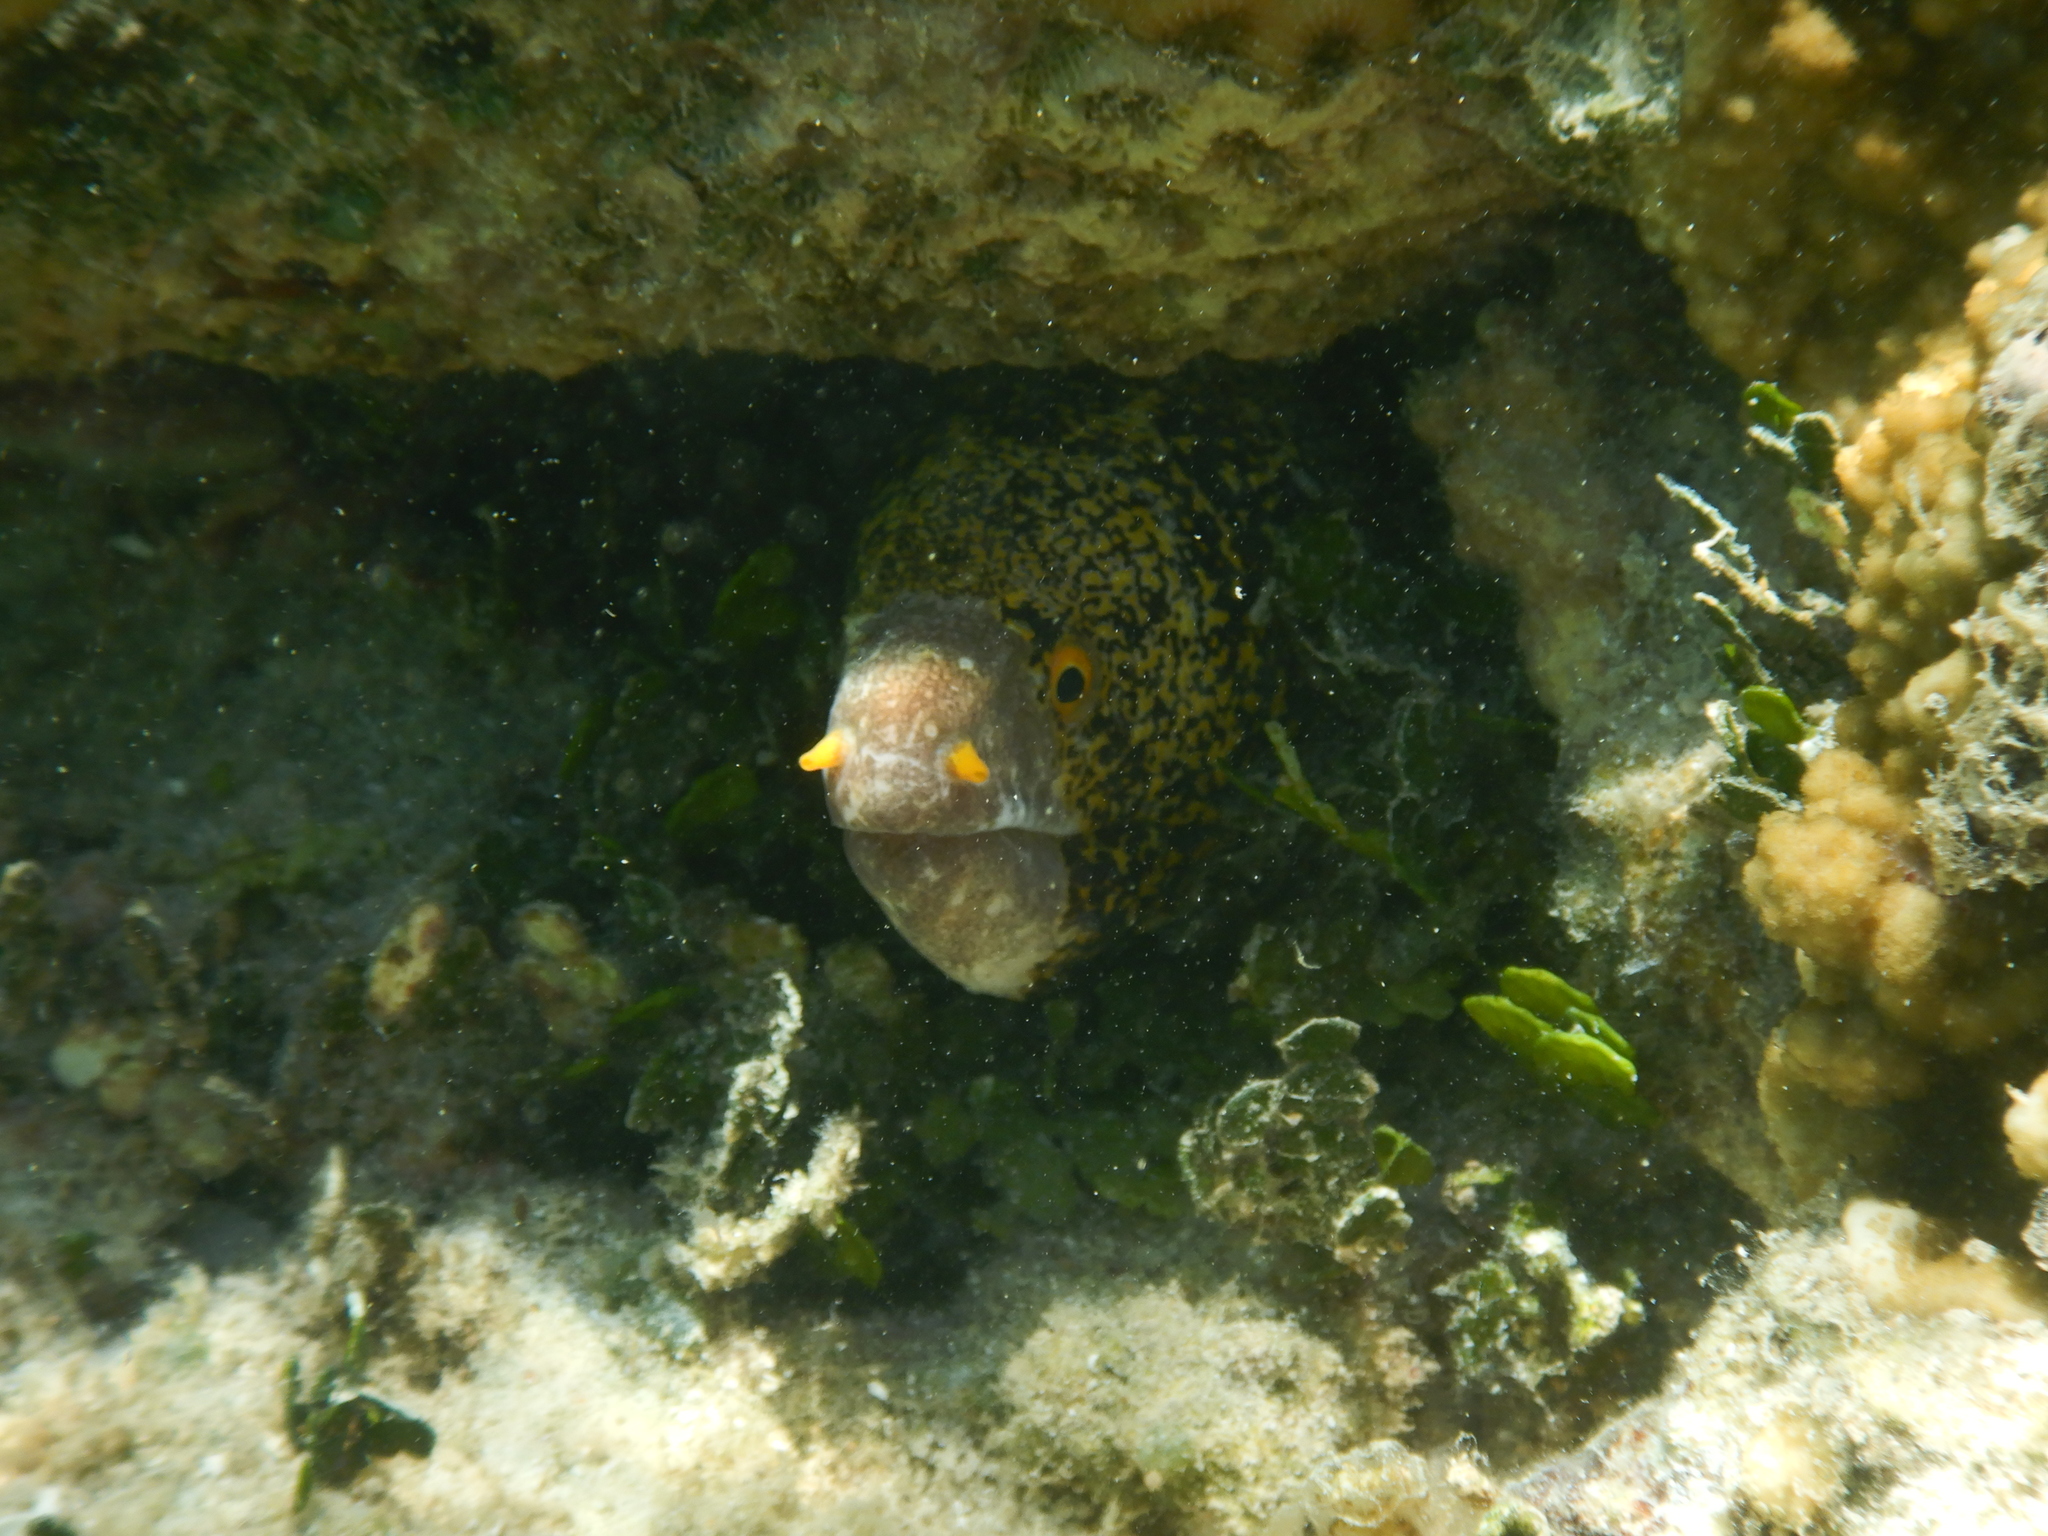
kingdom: Animalia
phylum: Chordata
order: Anguilliformes
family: Muraenidae
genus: Echidna
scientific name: Echidna nebulosa
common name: Snowflake moray
